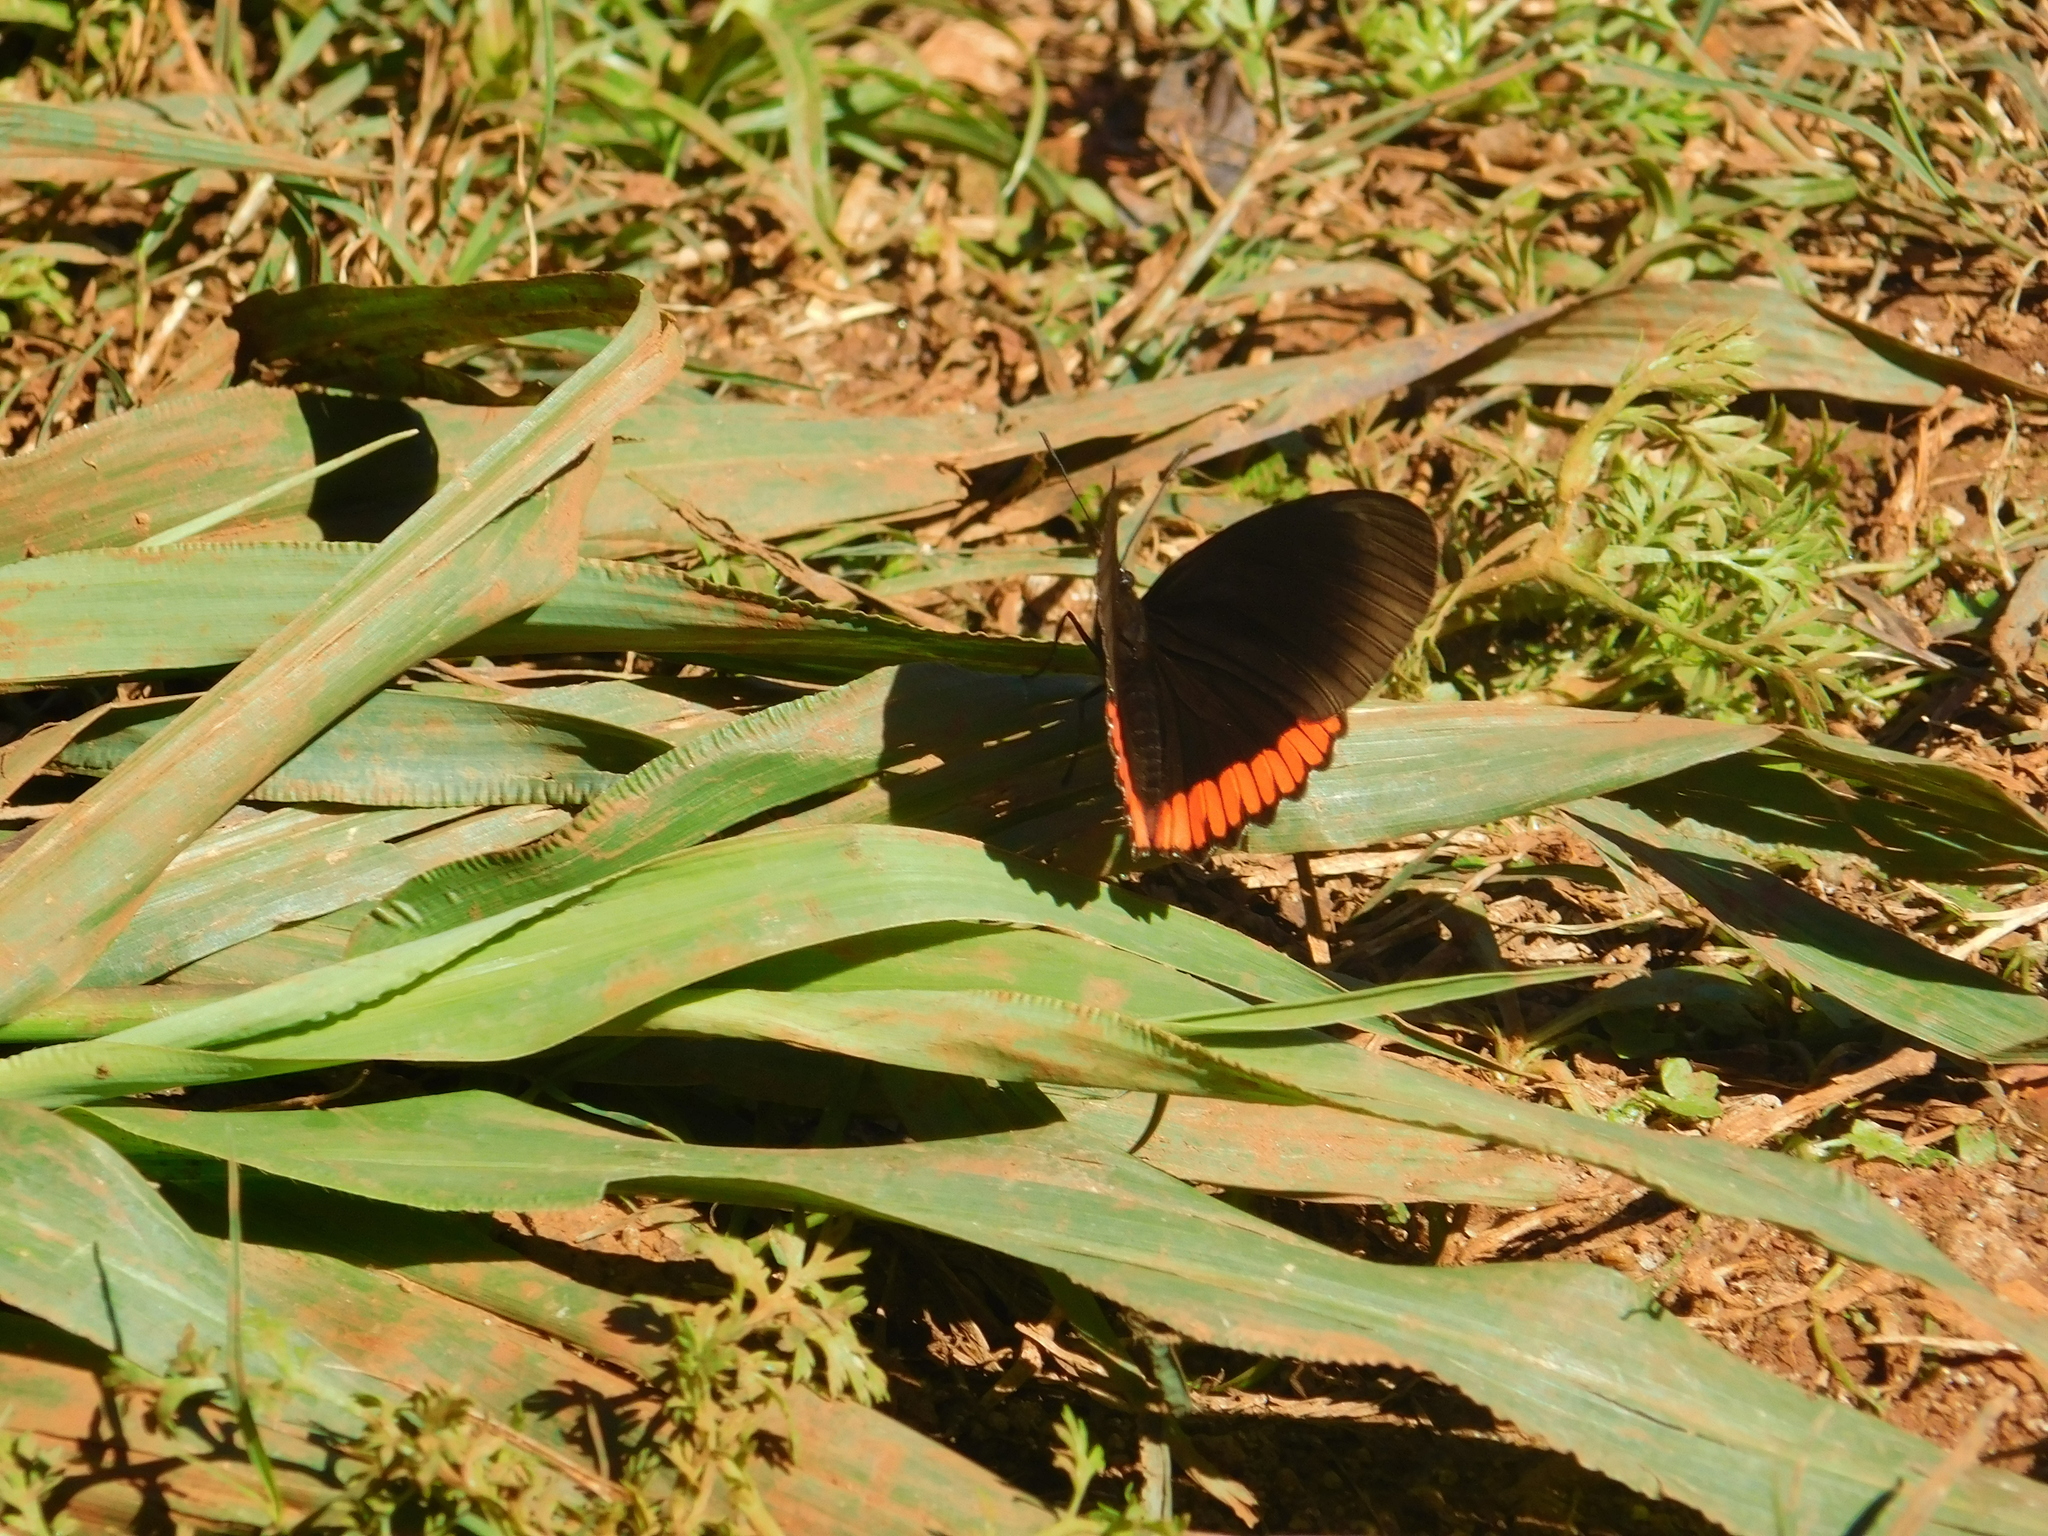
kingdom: Animalia
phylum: Arthropoda
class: Insecta
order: Lepidoptera
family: Sesiidae
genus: Sesia
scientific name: Sesia Biblis hyperia
